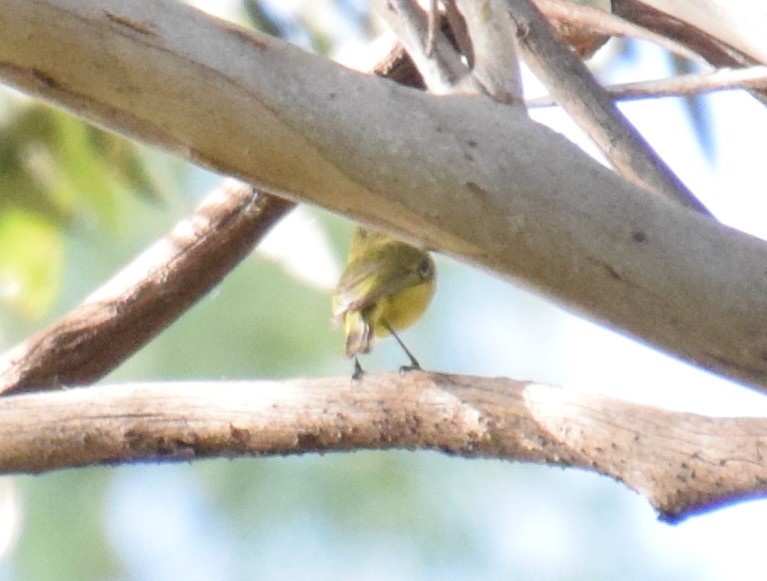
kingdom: Animalia
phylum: Chordata
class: Aves
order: Passeriformes
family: Acanthizidae
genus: Acanthiza
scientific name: Acanthiza nana
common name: Yellow thornbill
